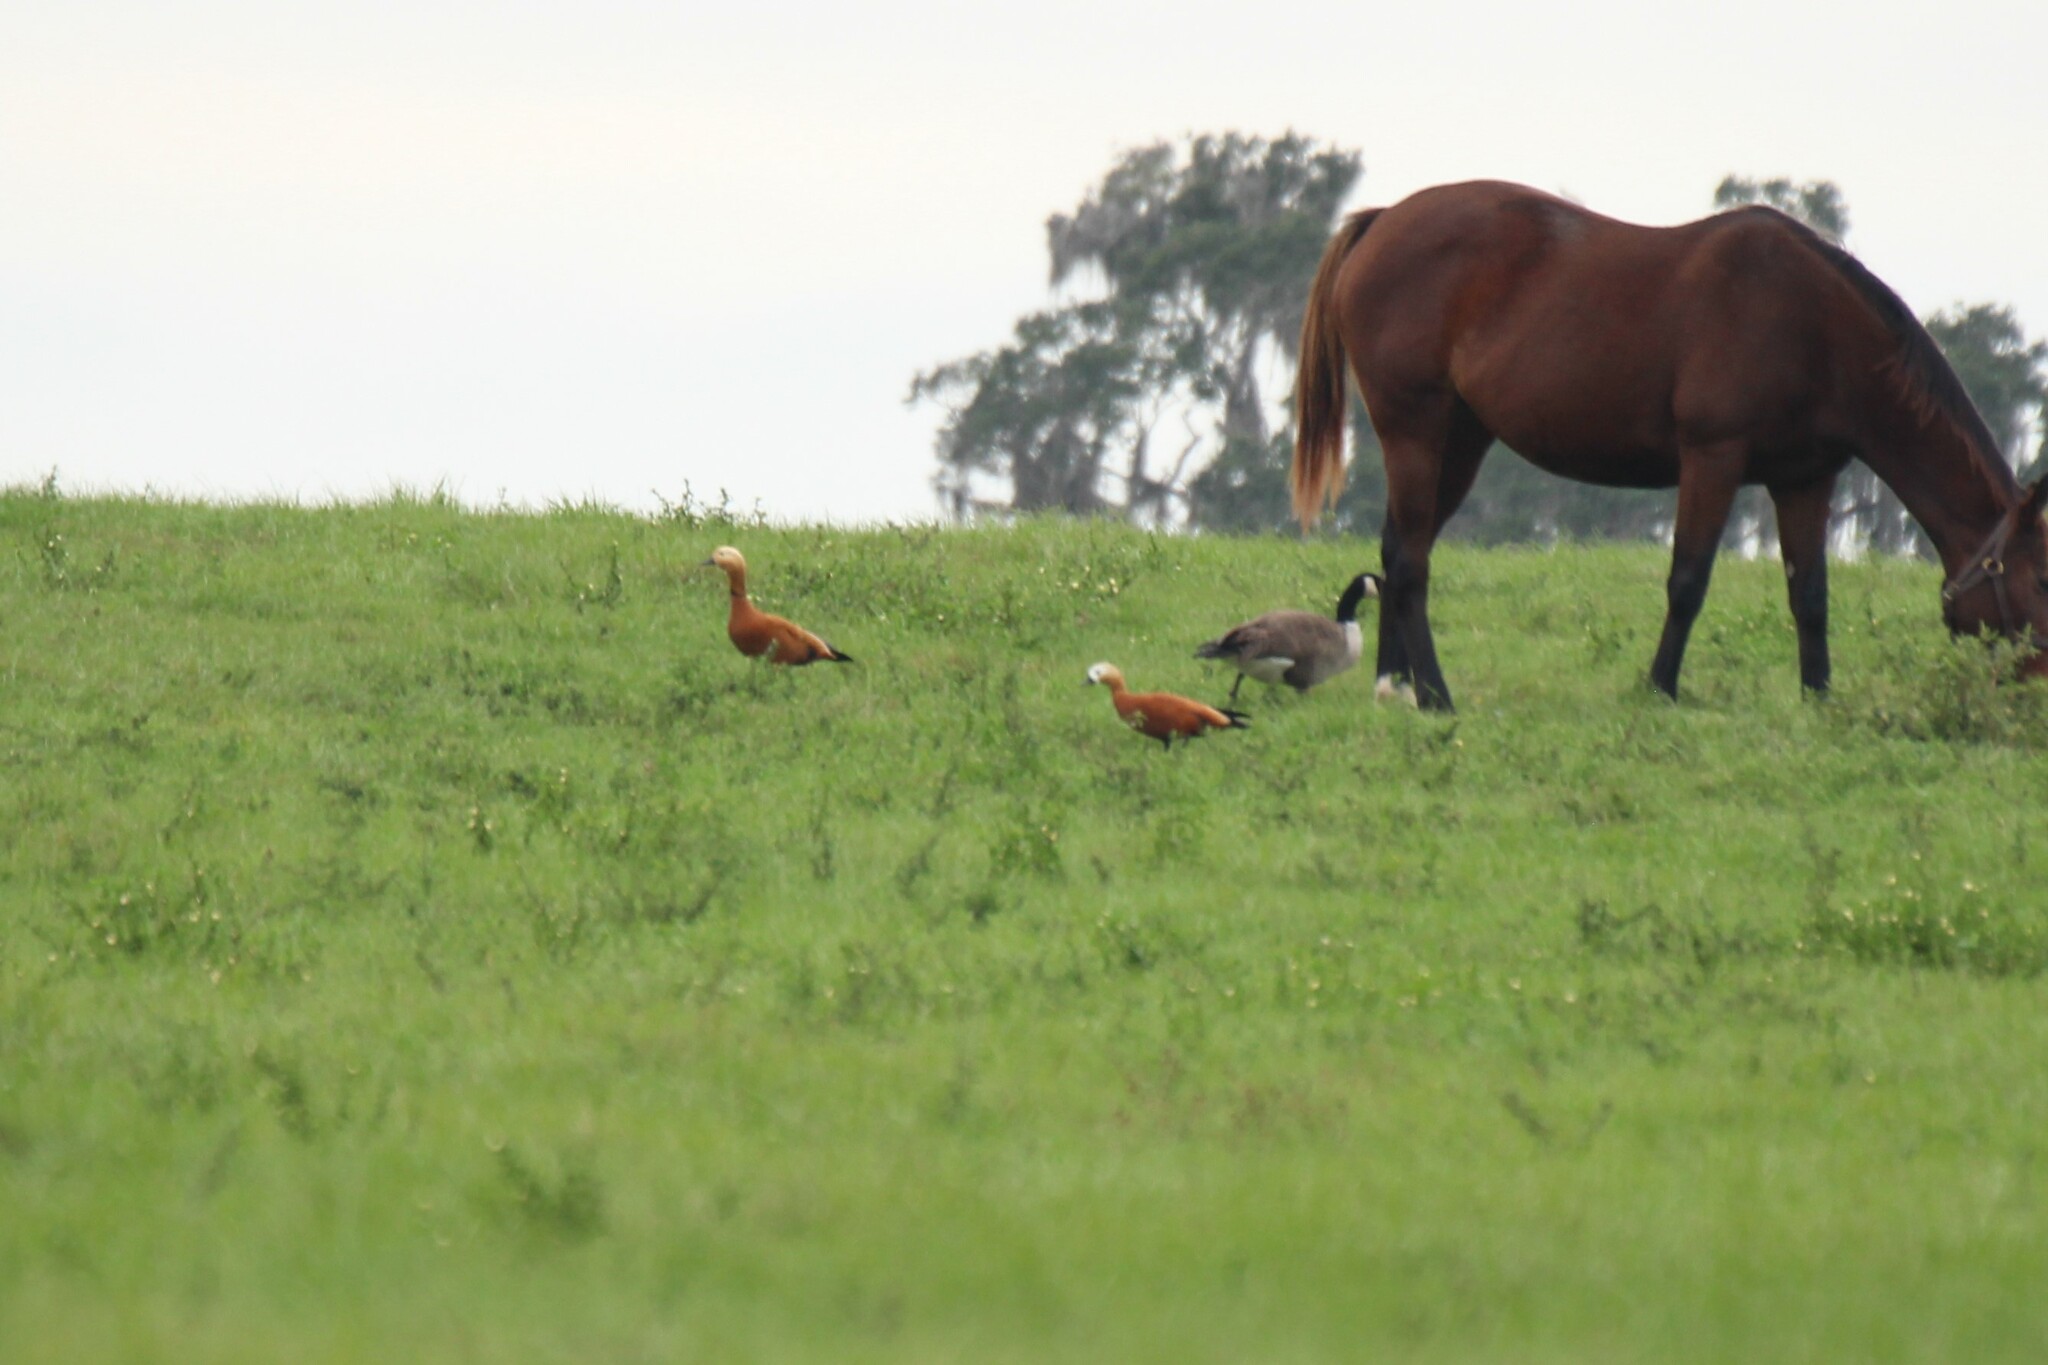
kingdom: Animalia
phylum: Chordata
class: Aves
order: Anseriformes
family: Anatidae
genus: Tadorna
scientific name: Tadorna ferruginea
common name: Ruddy shelduck
